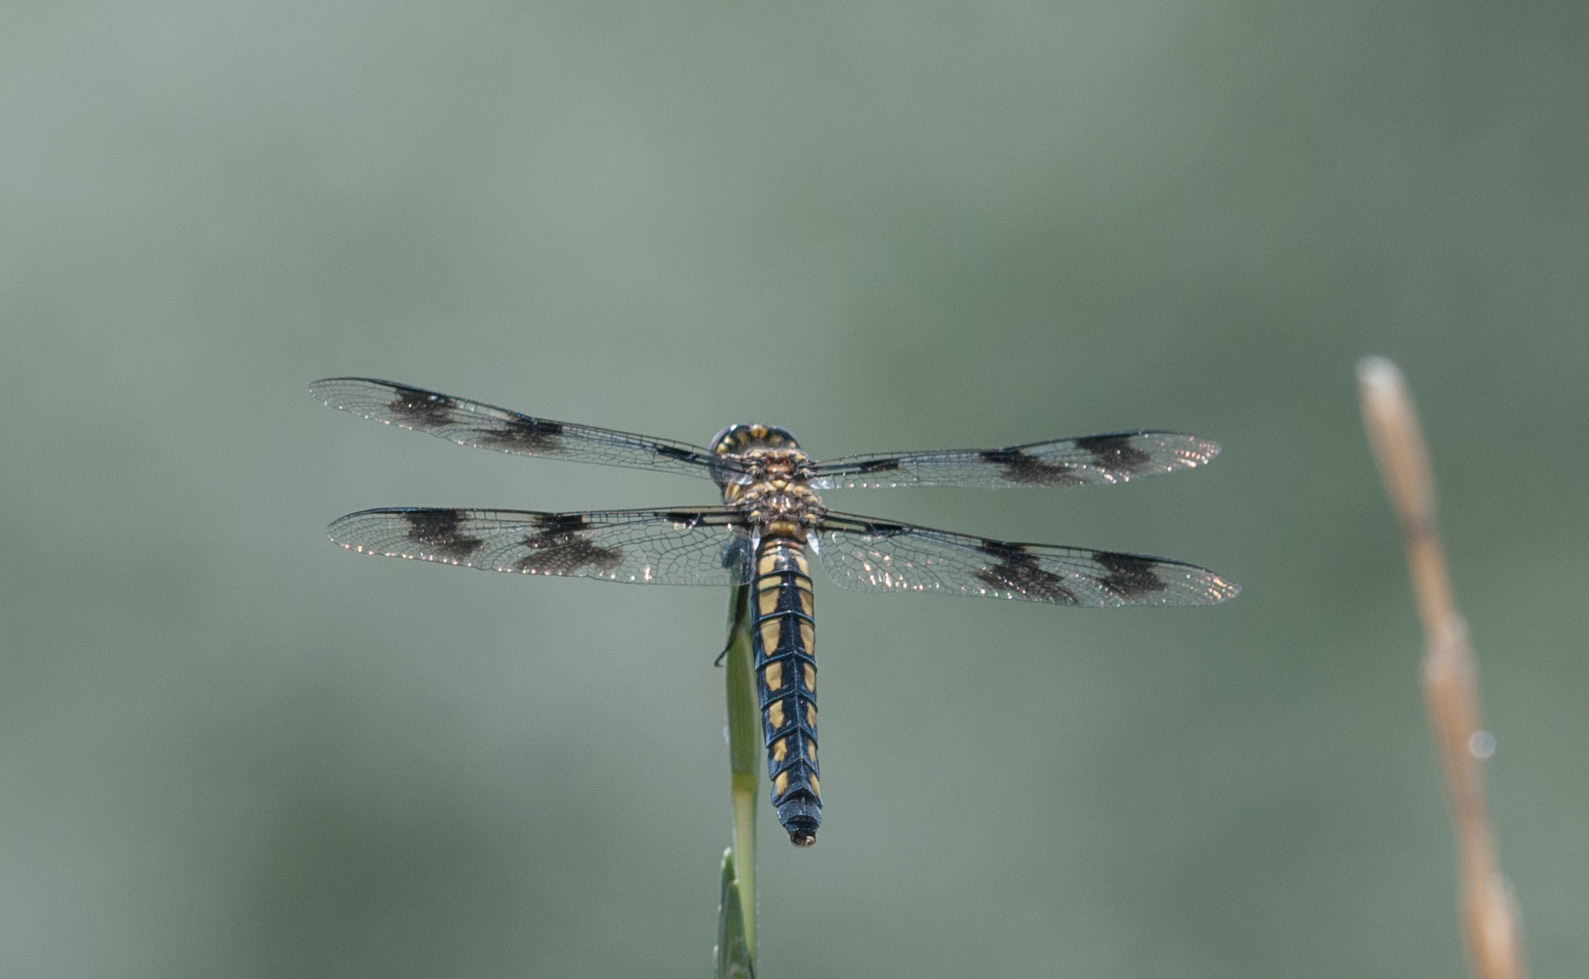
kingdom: Animalia
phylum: Arthropoda
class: Insecta
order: Odonata
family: Libellulidae
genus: Plathemis
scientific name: Plathemis subornata
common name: Desert whitetail
